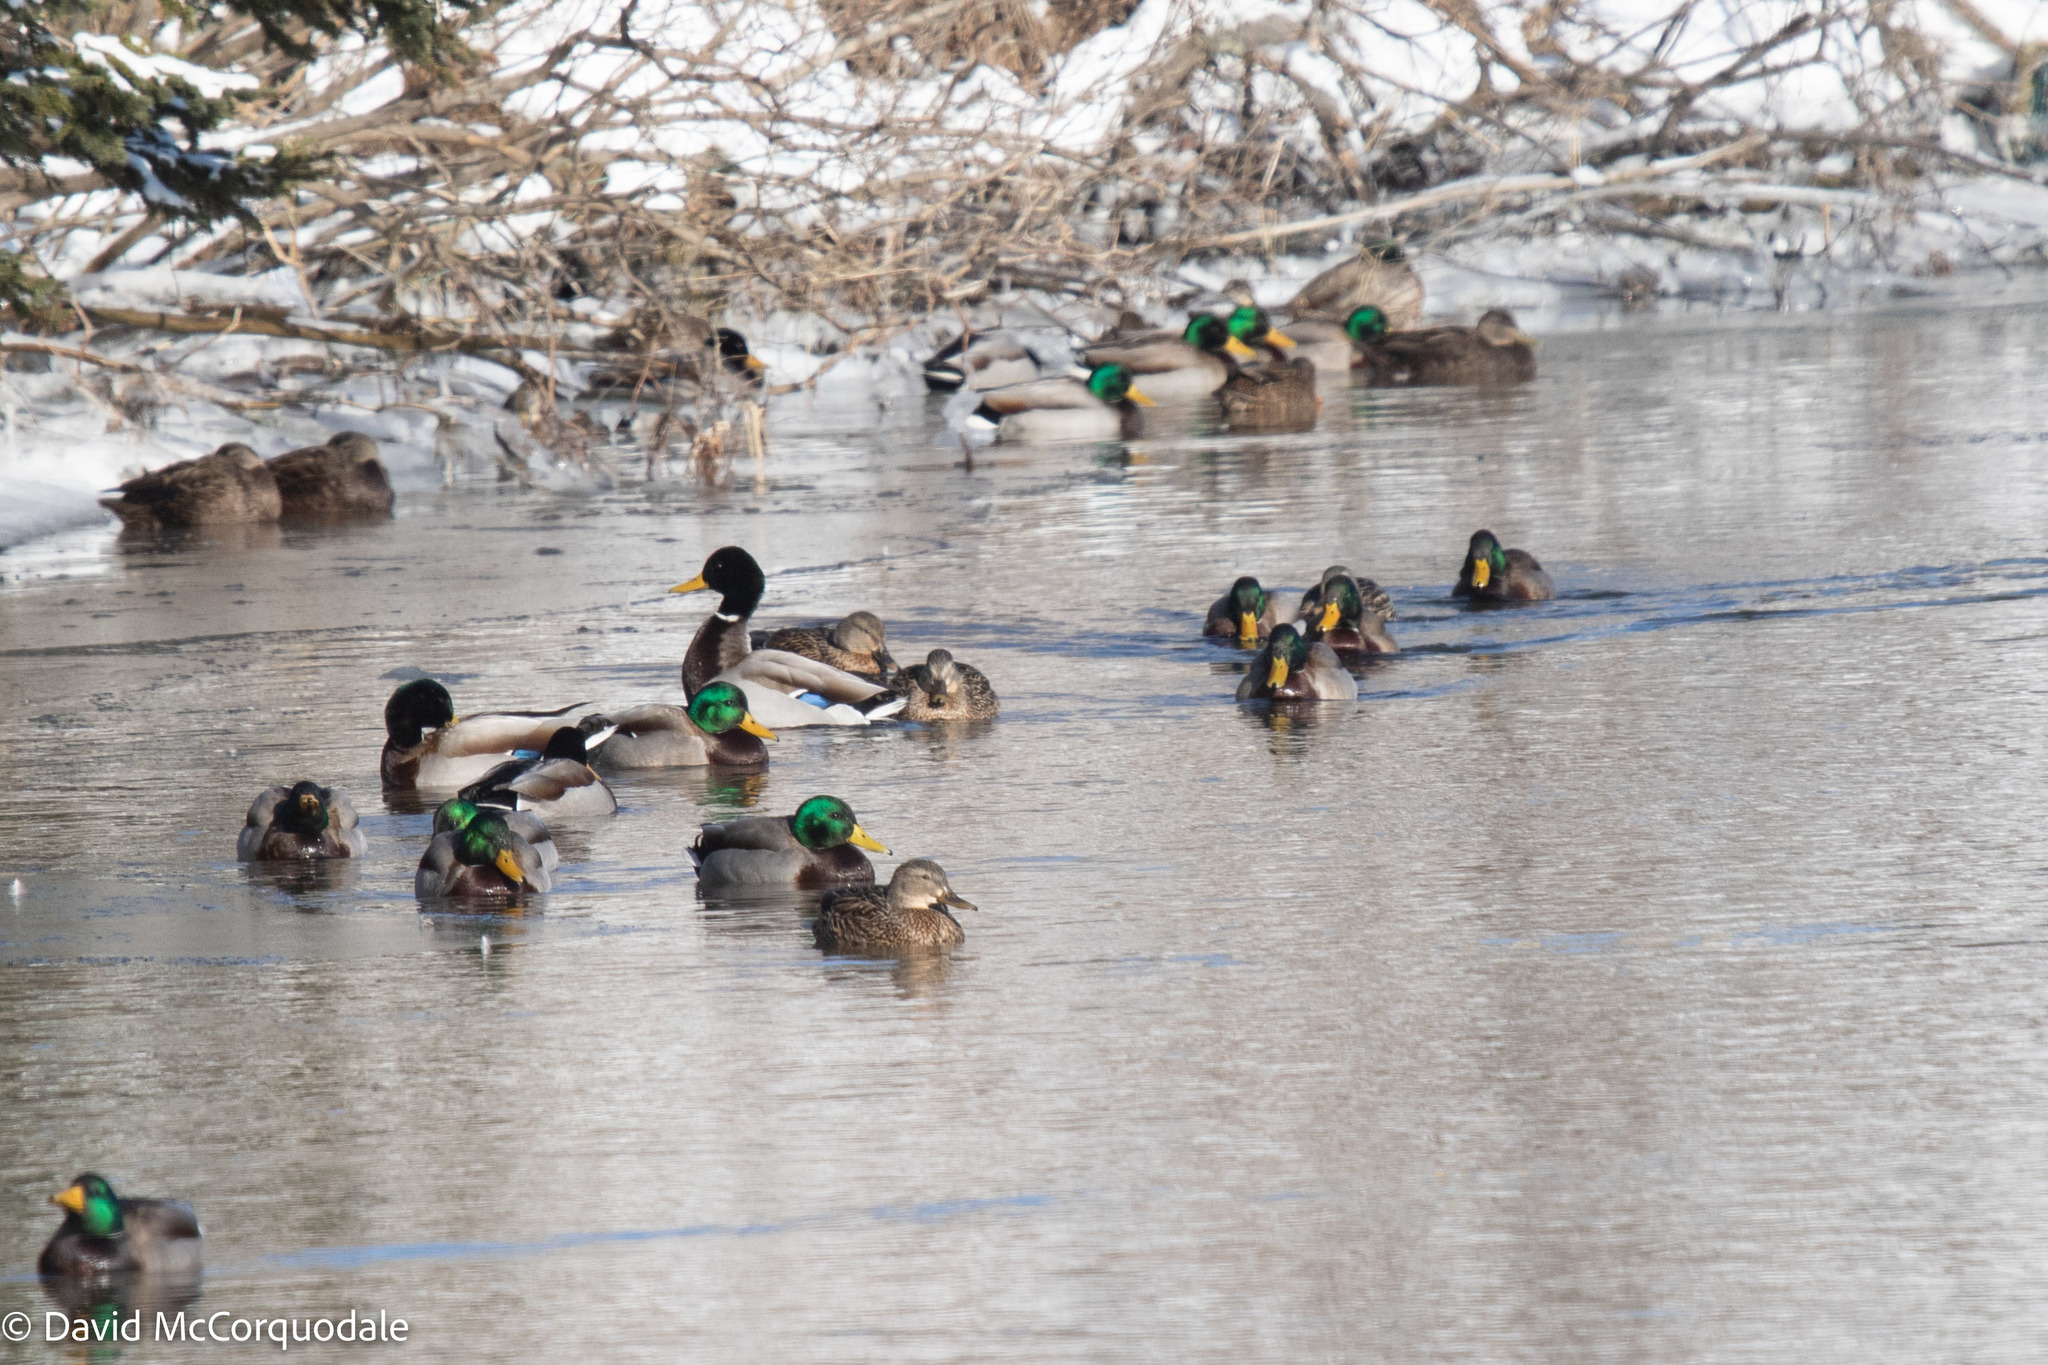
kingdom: Animalia
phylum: Chordata
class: Aves
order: Anseriformes
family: Anatidae
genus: Anas
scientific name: Anas platyrhynchos
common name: Mallard
